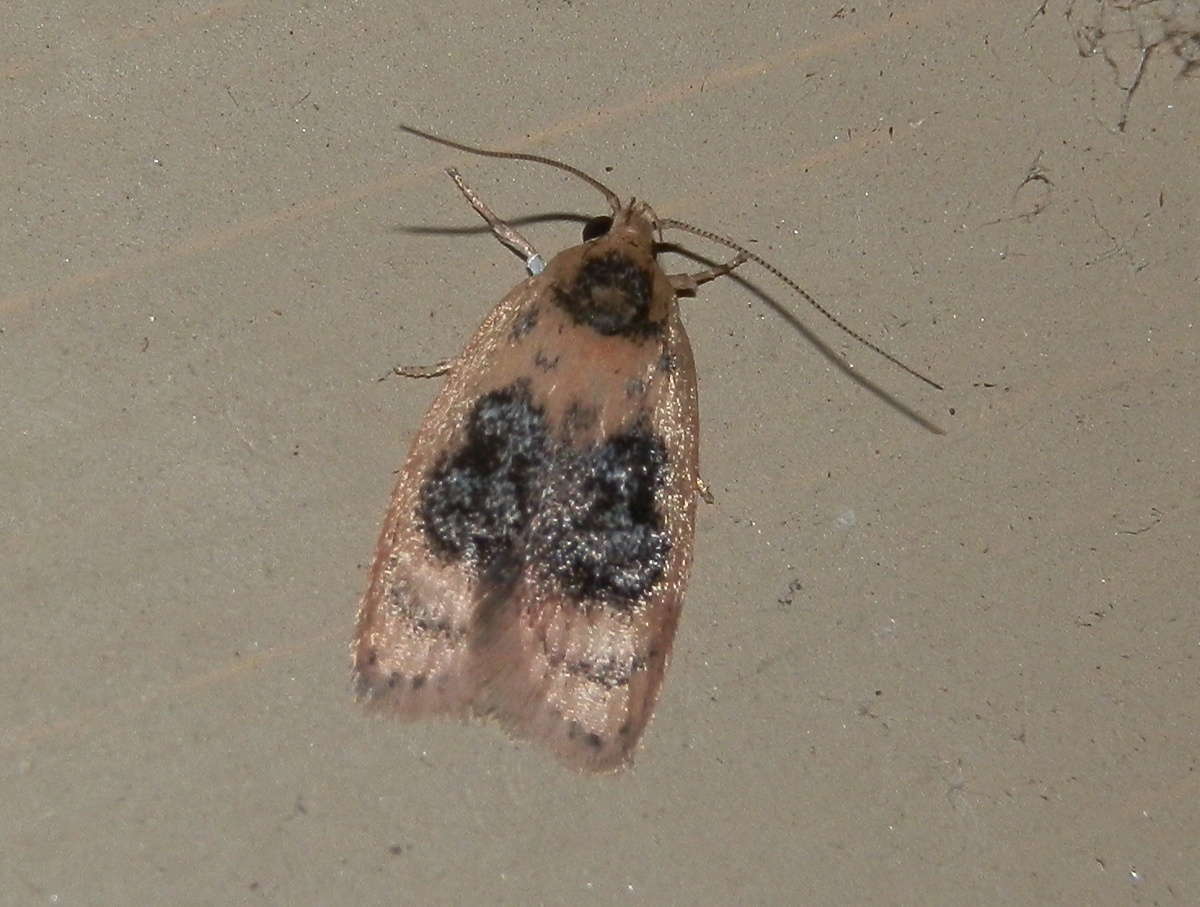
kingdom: Animalia
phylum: Arthropoda
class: Insecta
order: Lepidoptera
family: Oecophoridae
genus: Garrha
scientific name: Garrha ocellifera
